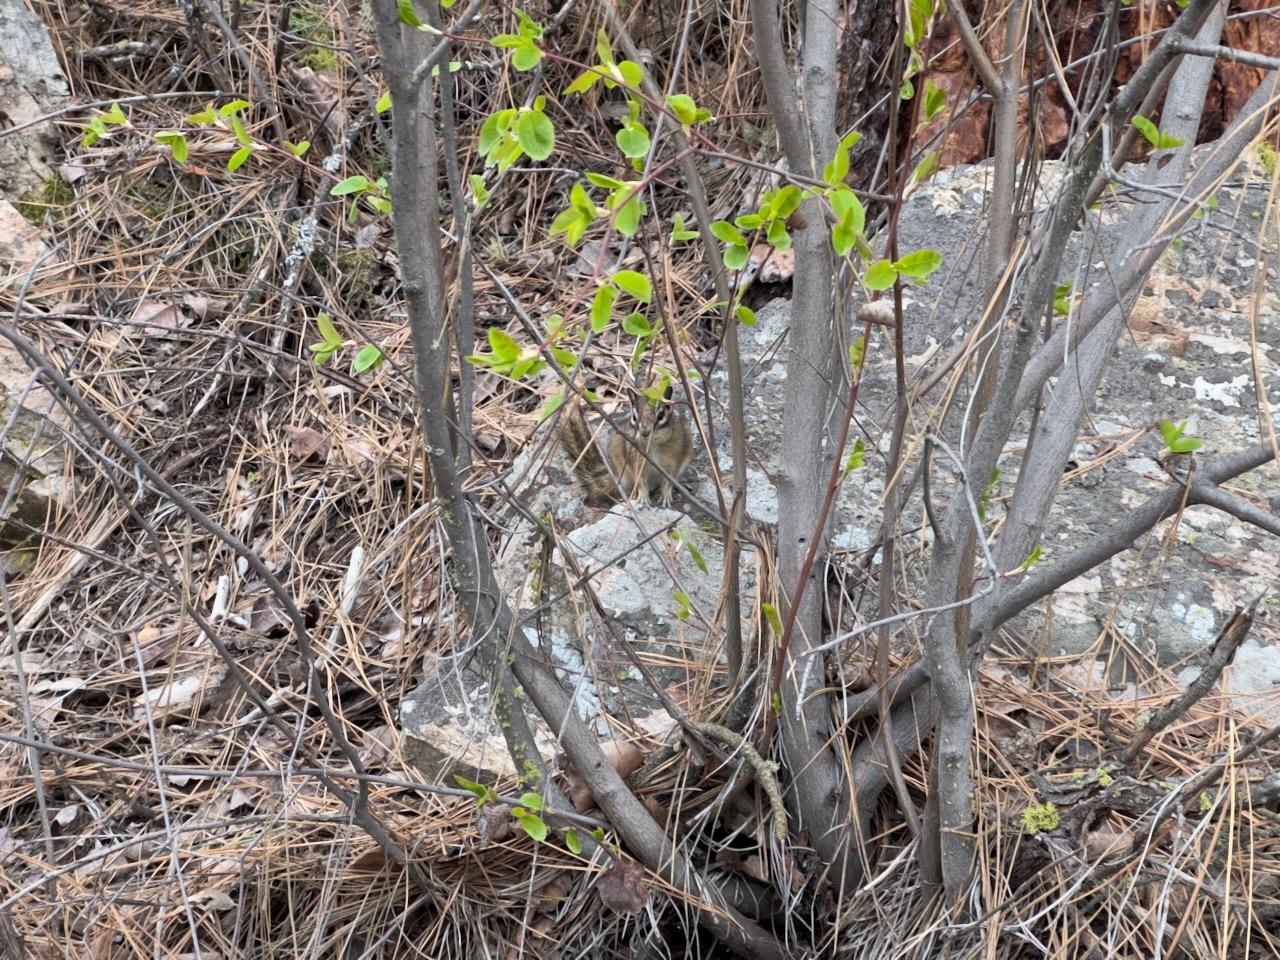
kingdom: Animalia
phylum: Chordata
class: Mammalia
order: Rodentia
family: Sciuridae
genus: Tamias
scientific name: Tamias amoenus
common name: Yellow-pine chipmunk
